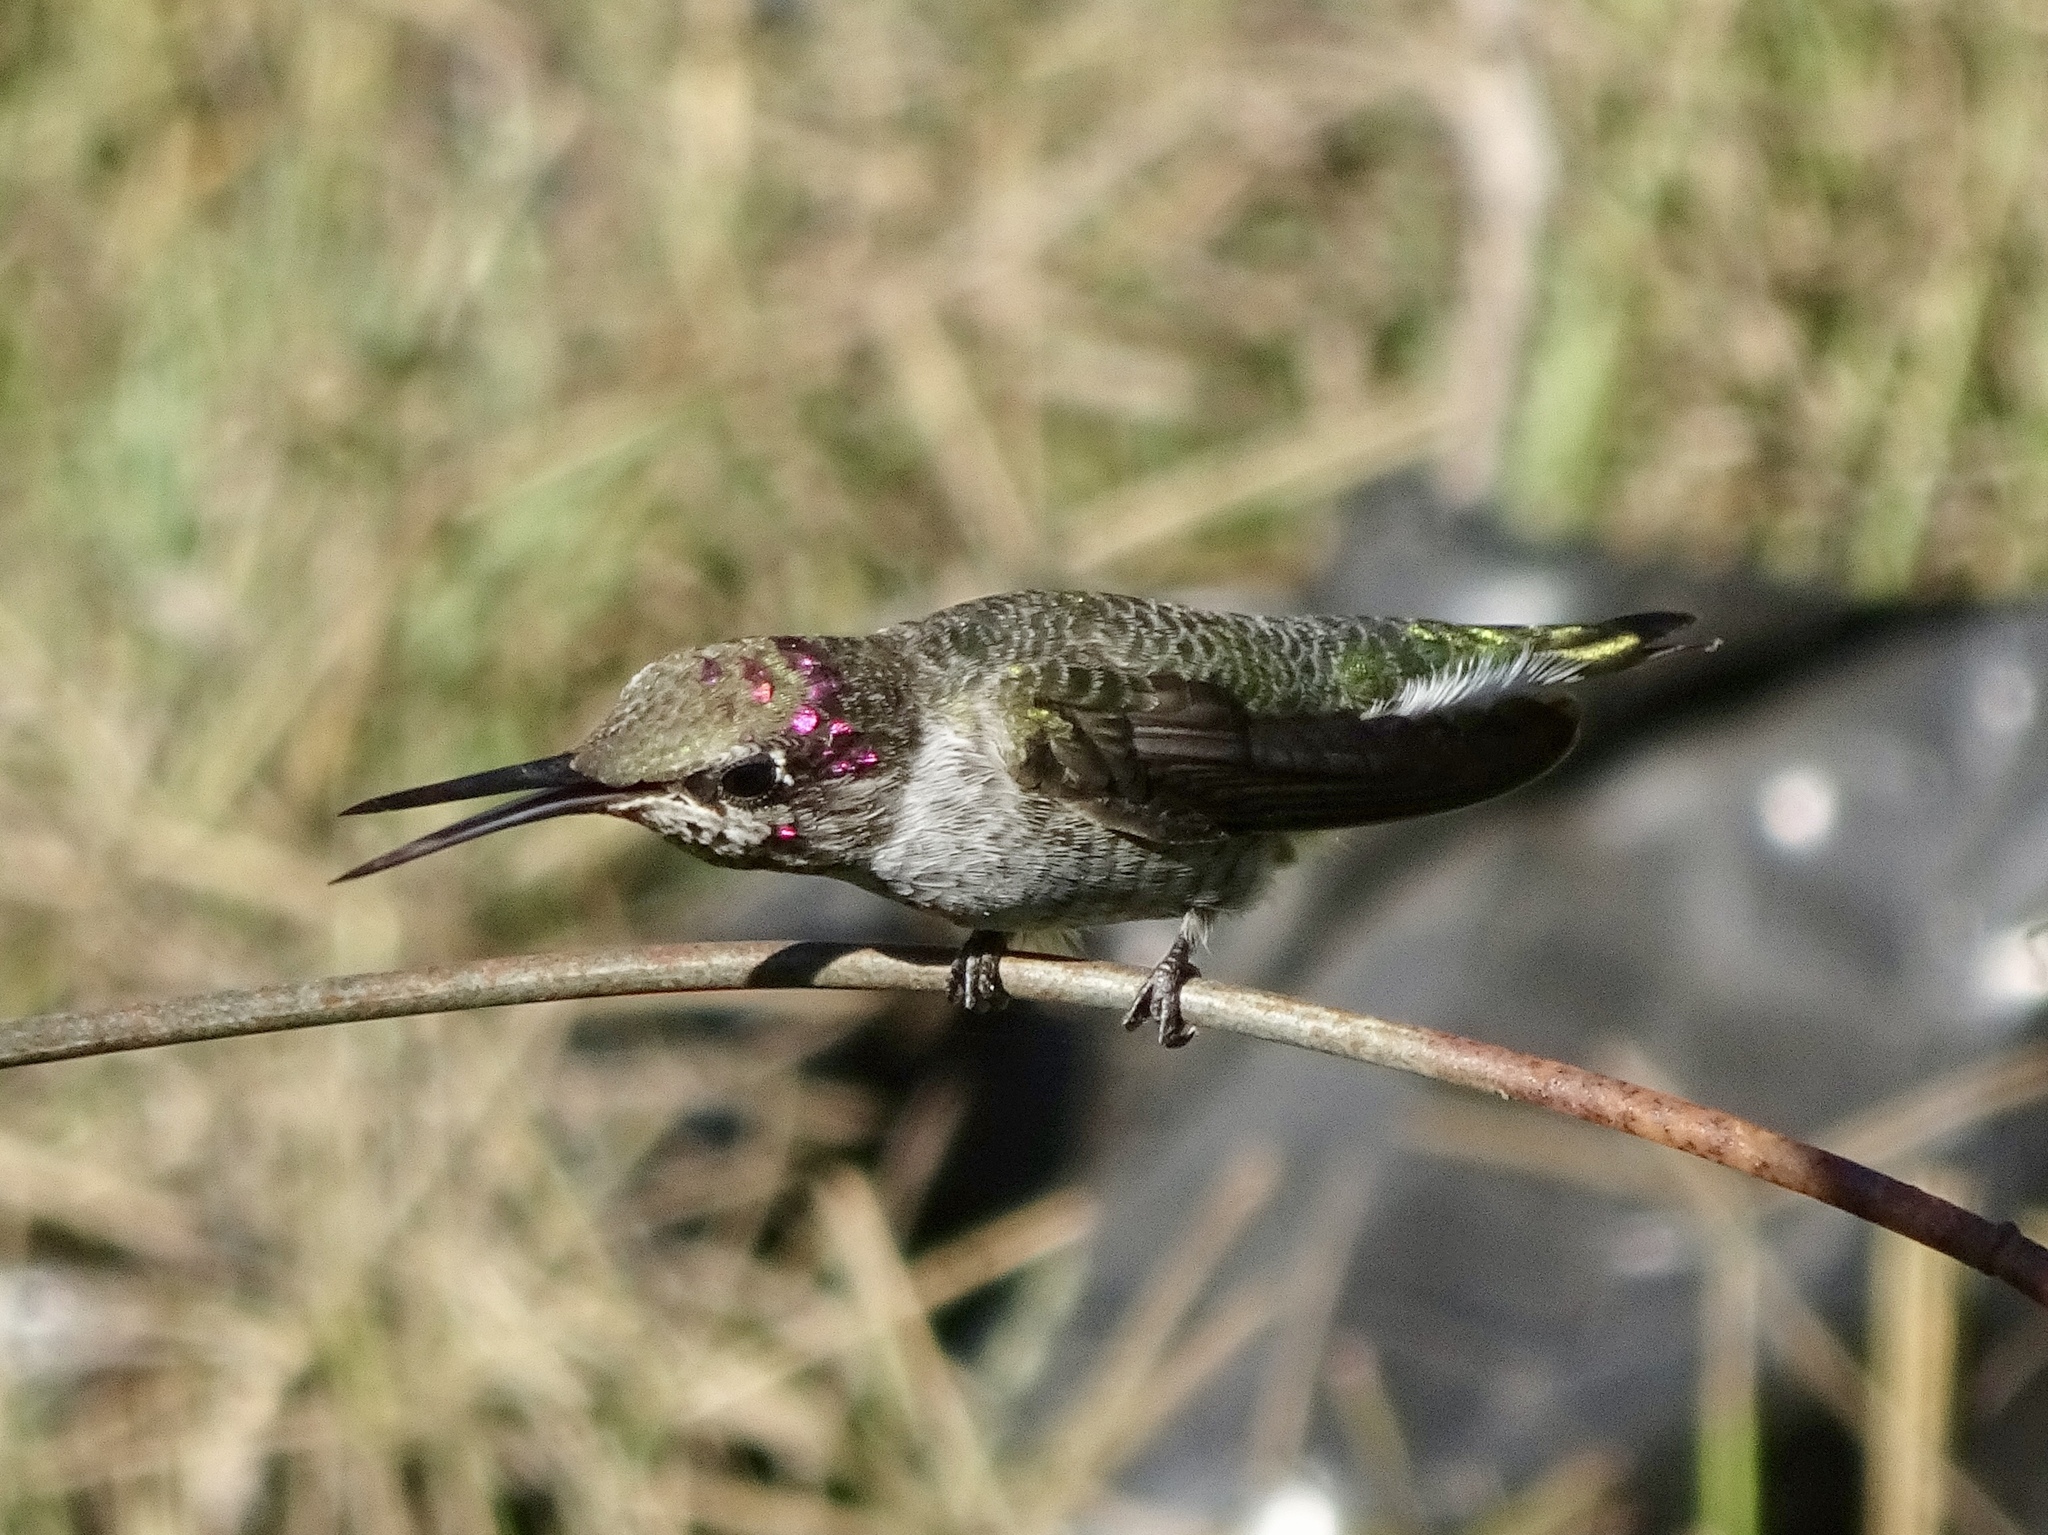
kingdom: Animalia
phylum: Chordata
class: Aves
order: Apodiformes
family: Trochilidae
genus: Calypte
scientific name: Calypte anna
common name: Anna's hummingbird
